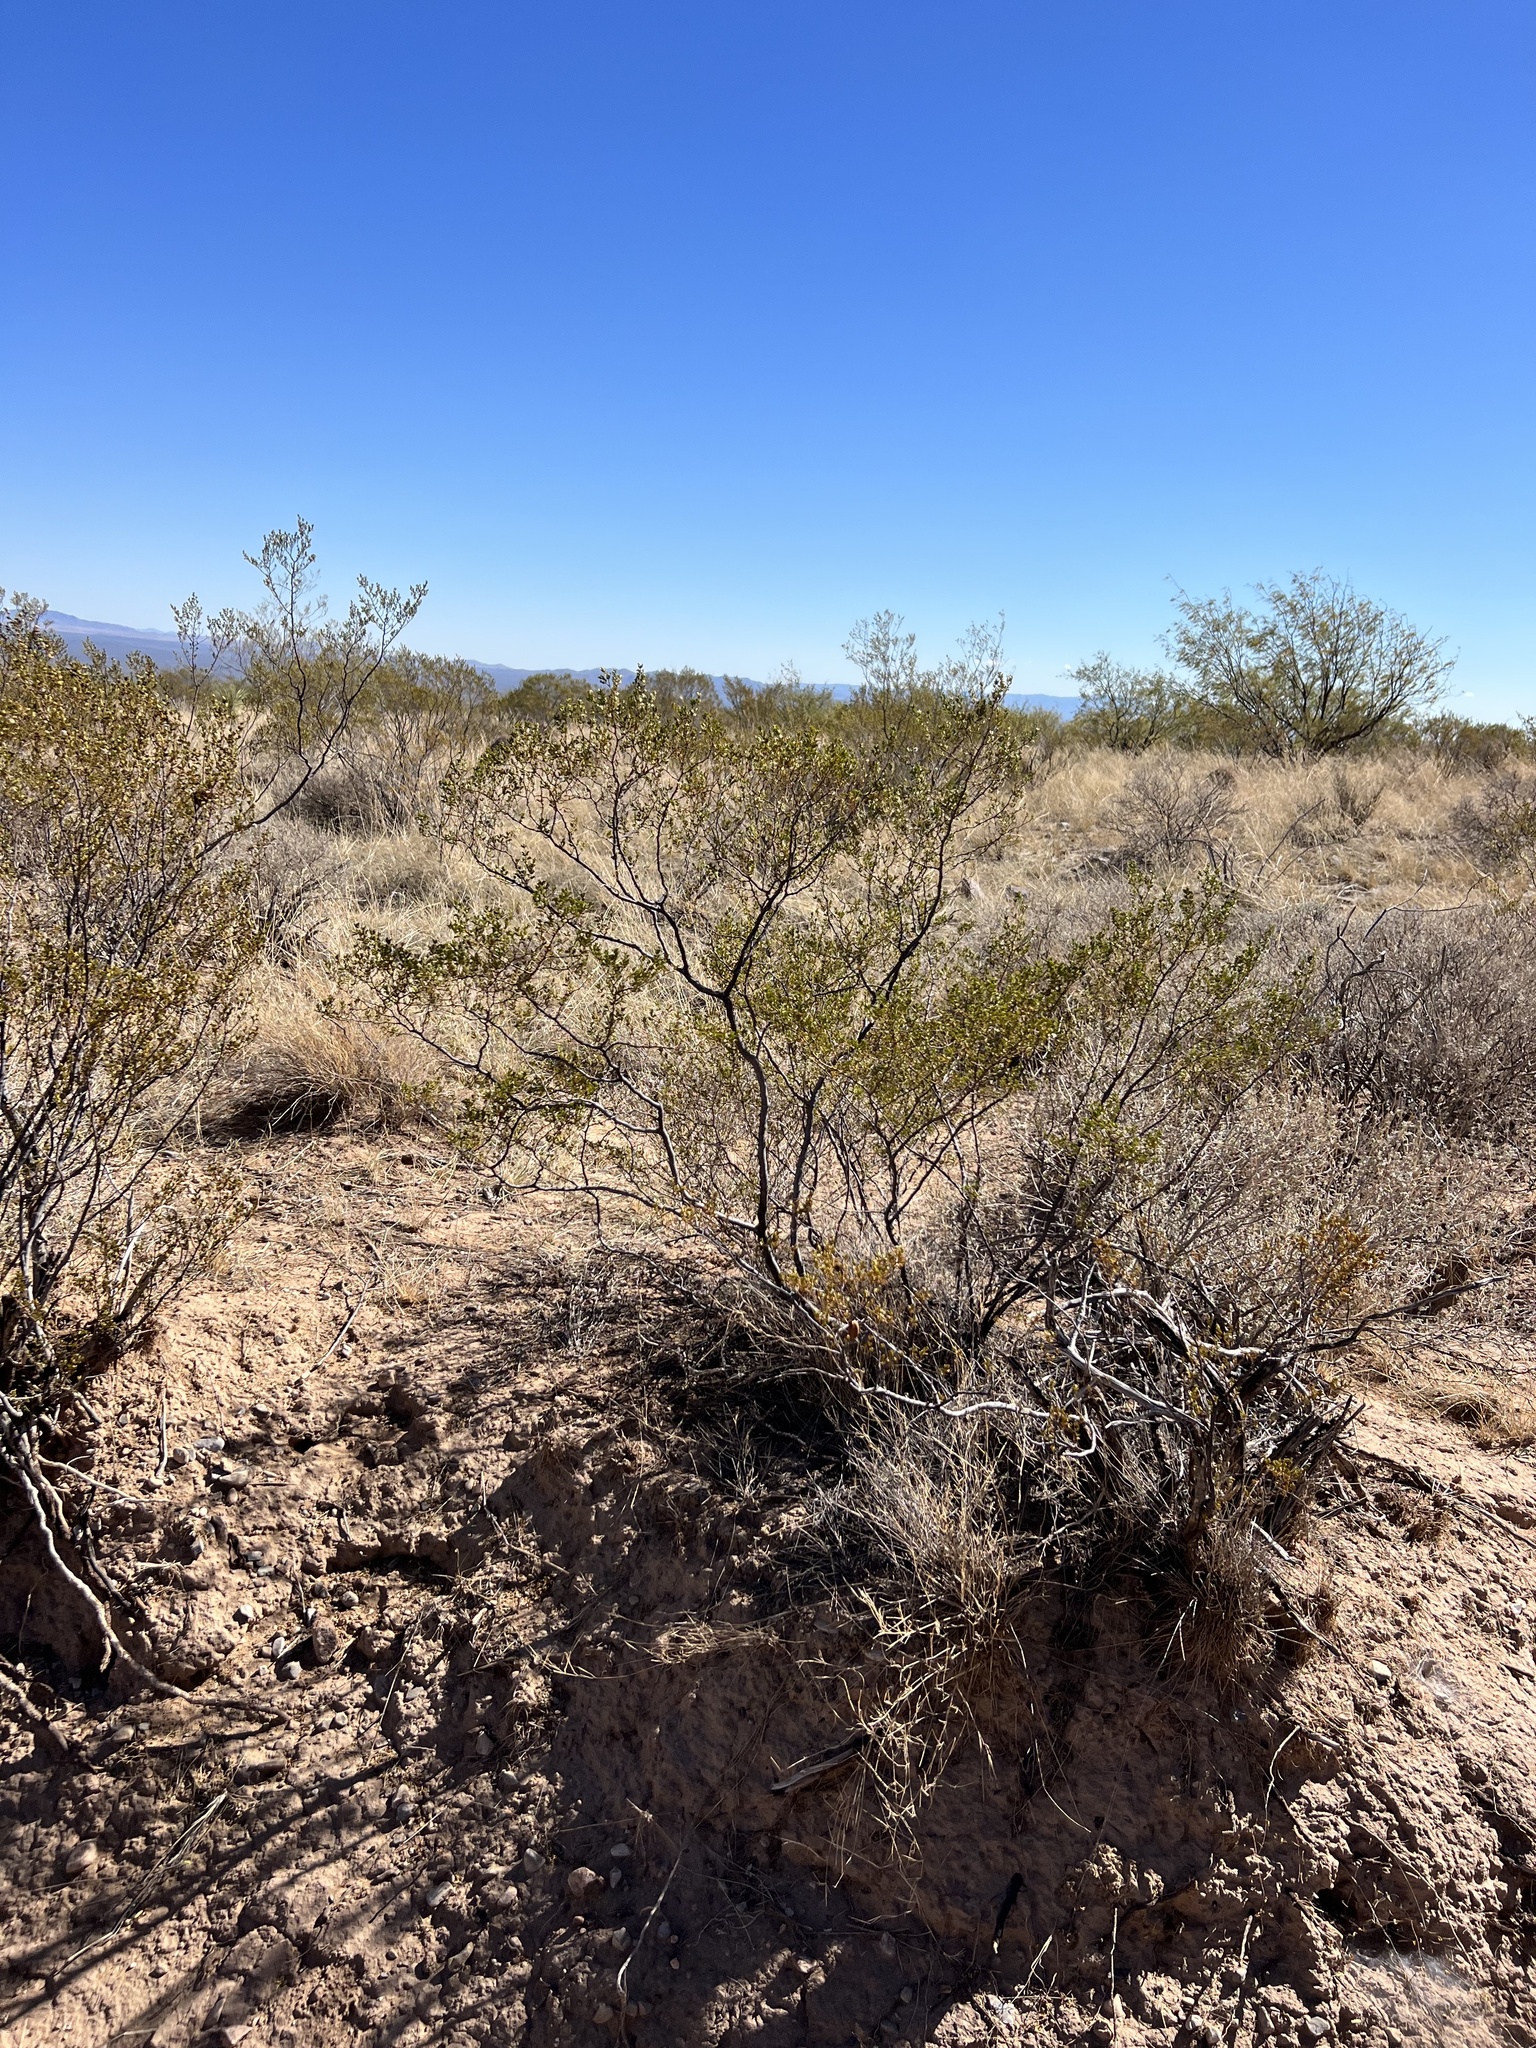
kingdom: Plantae
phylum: Tracheophyta
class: Magnoliopsida
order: Zygophyllales
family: Zygophyllaceae
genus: Larrea
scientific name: Larrea tridentata
